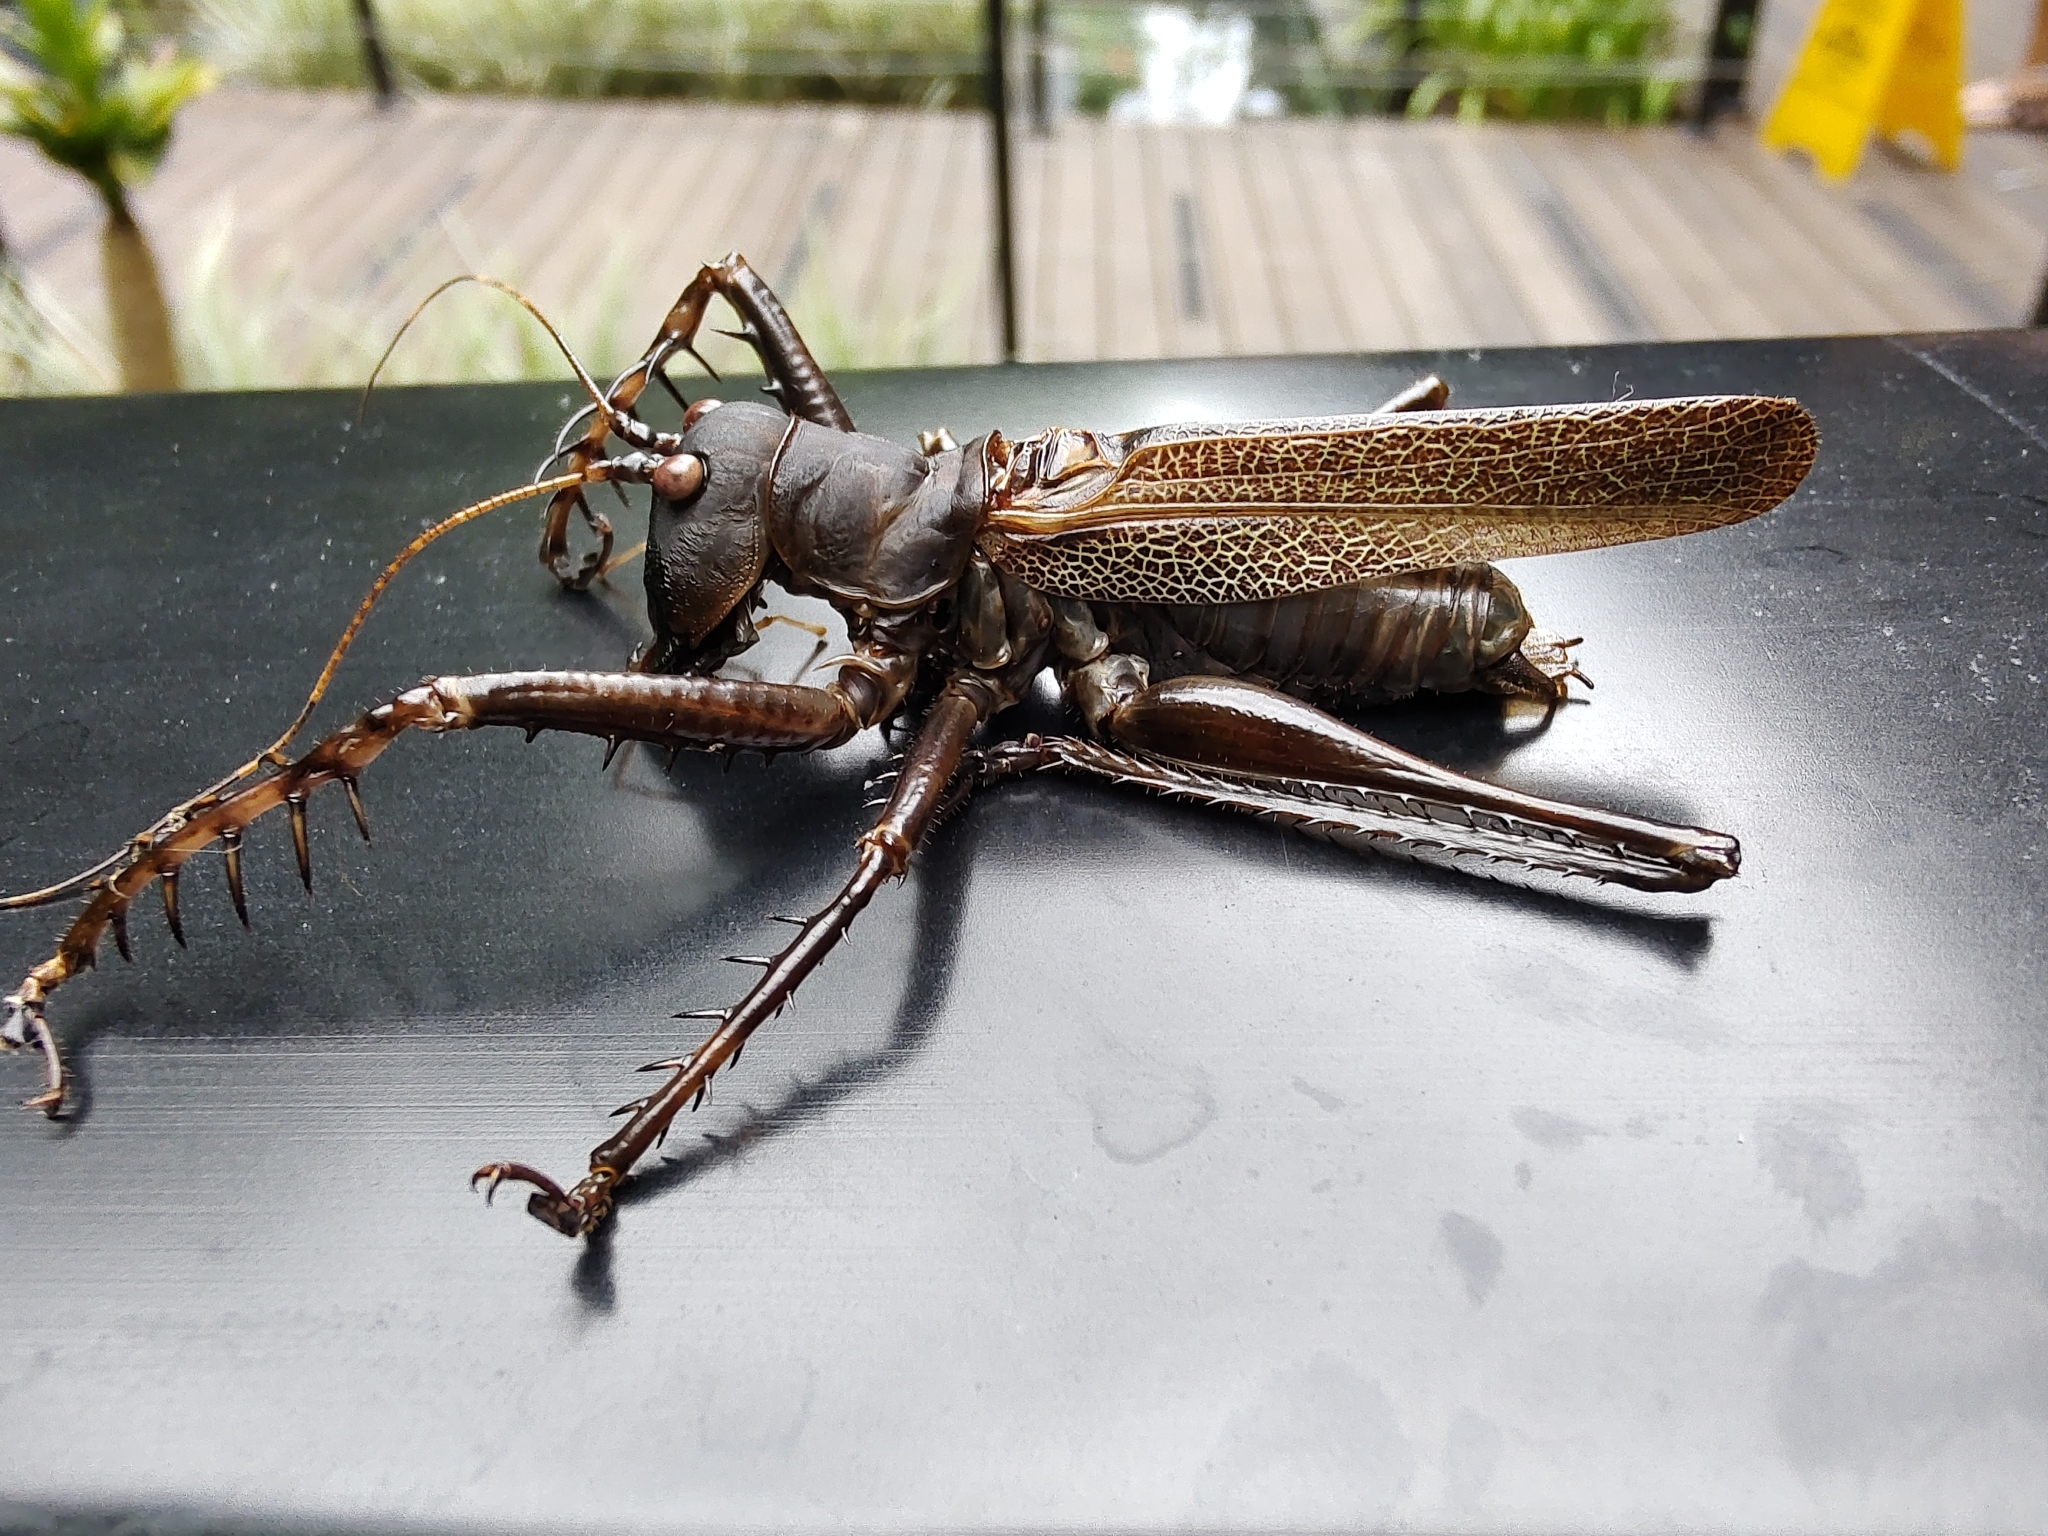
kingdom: Animalia
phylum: Arthropoda
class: Insecta
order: Orthoptera
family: Tettigoniidae
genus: Cerberodon
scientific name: Cerberodon viridis
